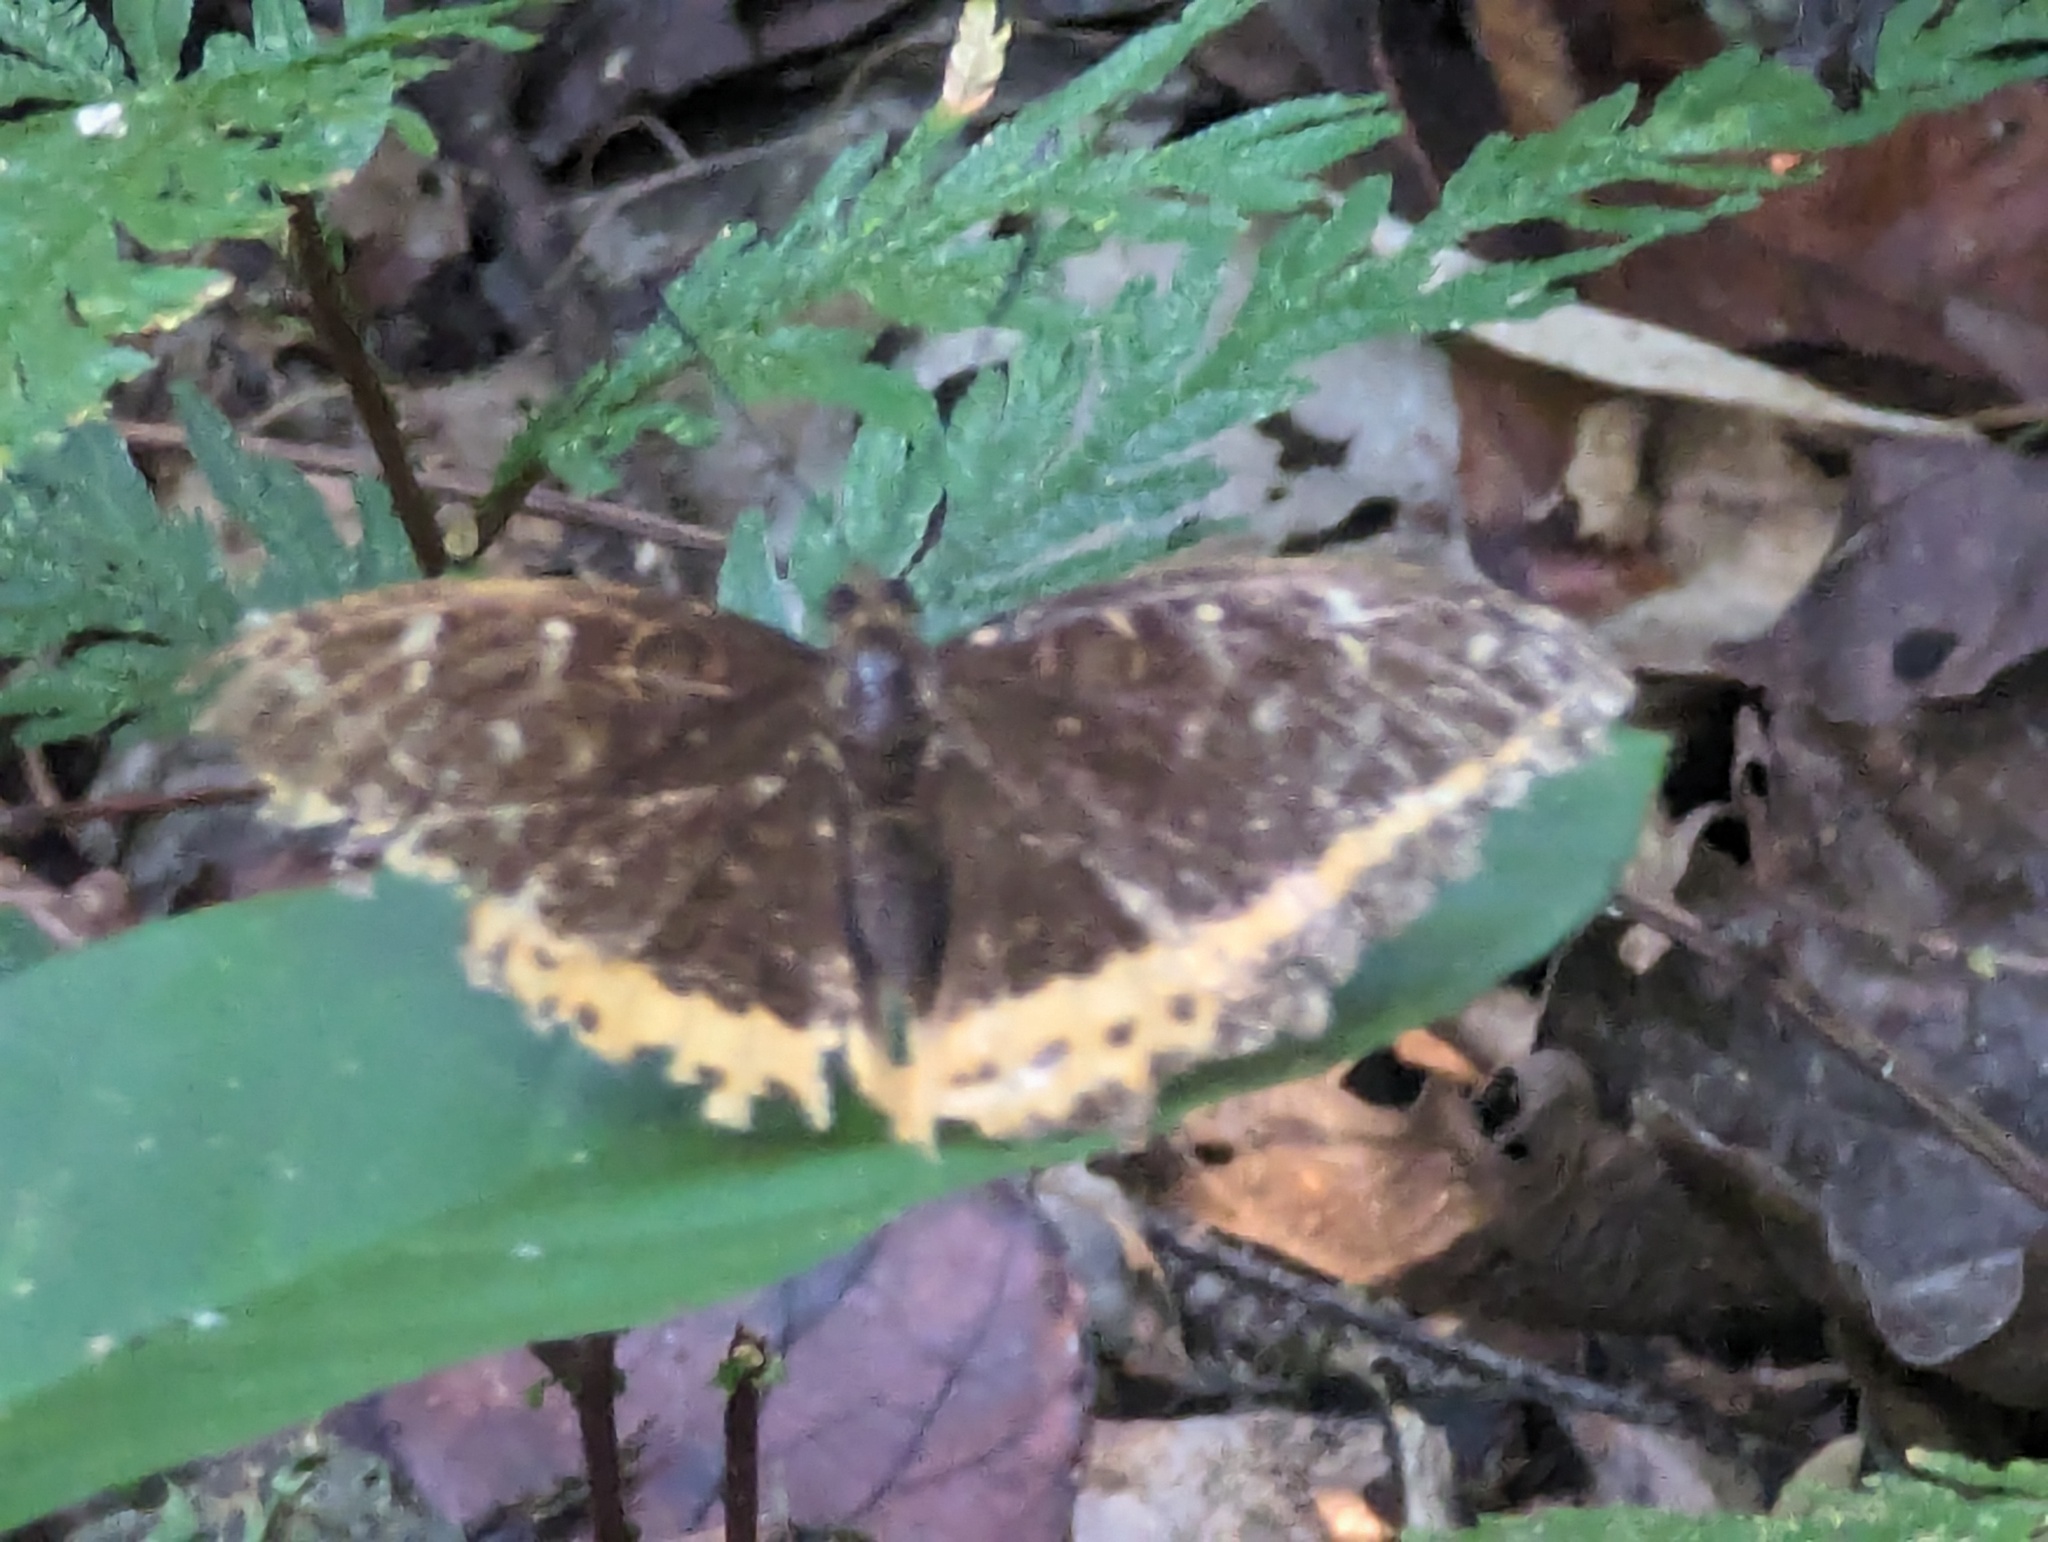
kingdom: Animalia
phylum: Arthropoda
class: Insecta
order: Lepidoptera
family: Nymphalidae
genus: Lexias
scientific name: Lexias panopus
